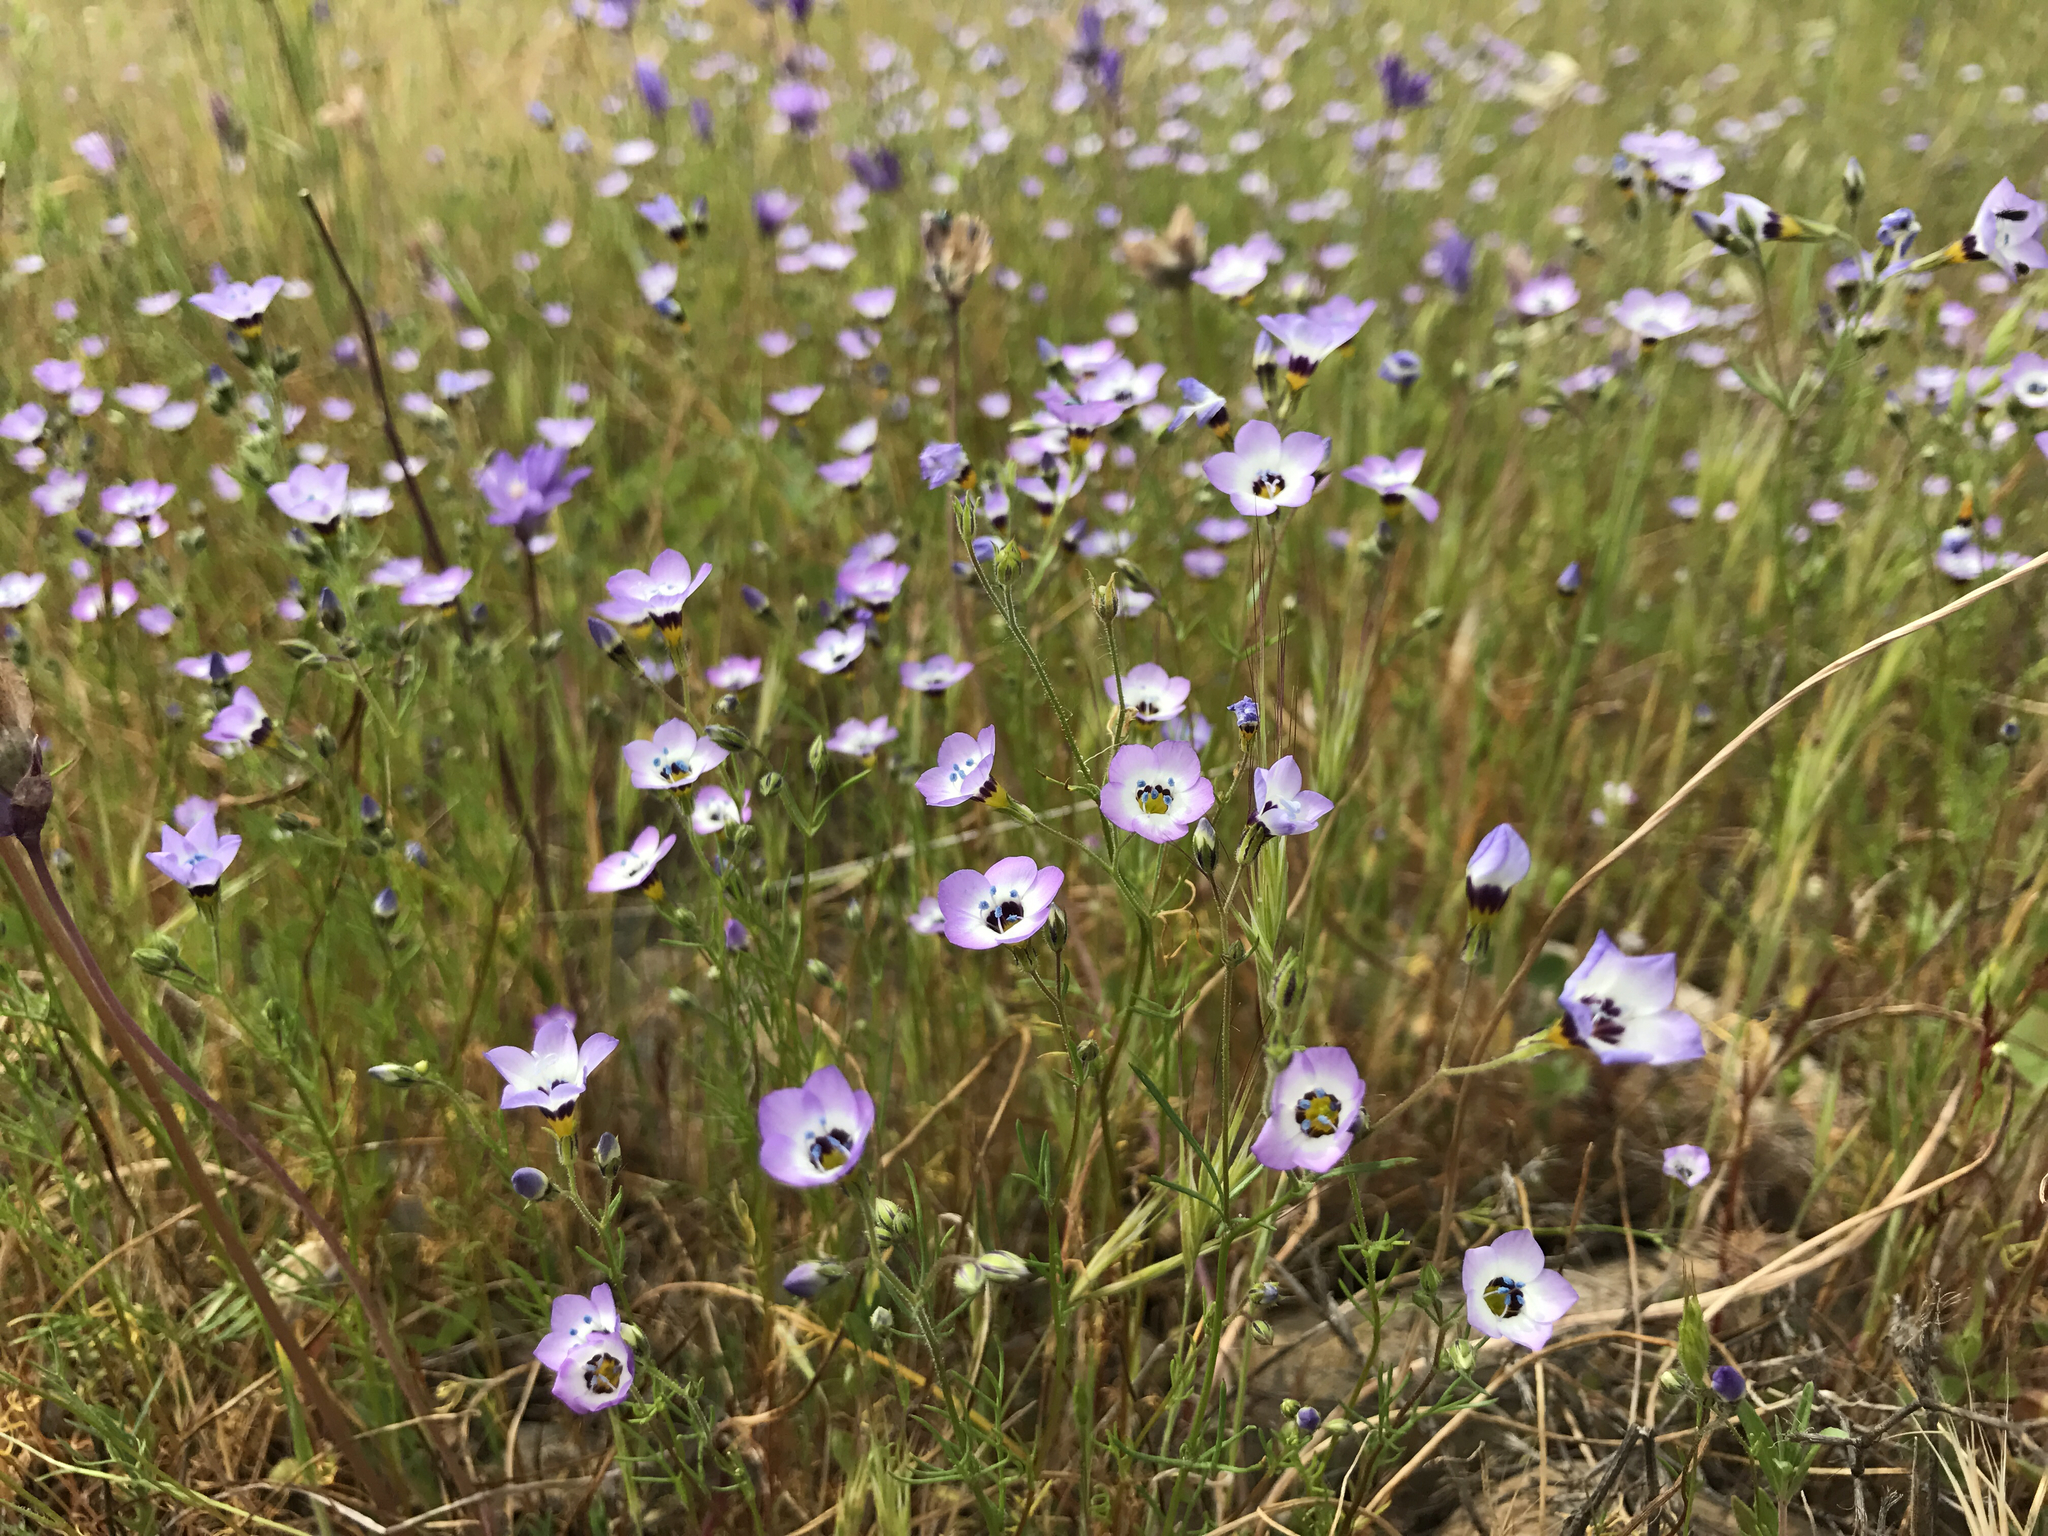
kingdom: Plantae
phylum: Tracheophyta
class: Magnoliopsida
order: Ericales
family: Polemoniaceae
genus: Gilia
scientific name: Gilia tricolor
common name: Bird's-eyes
